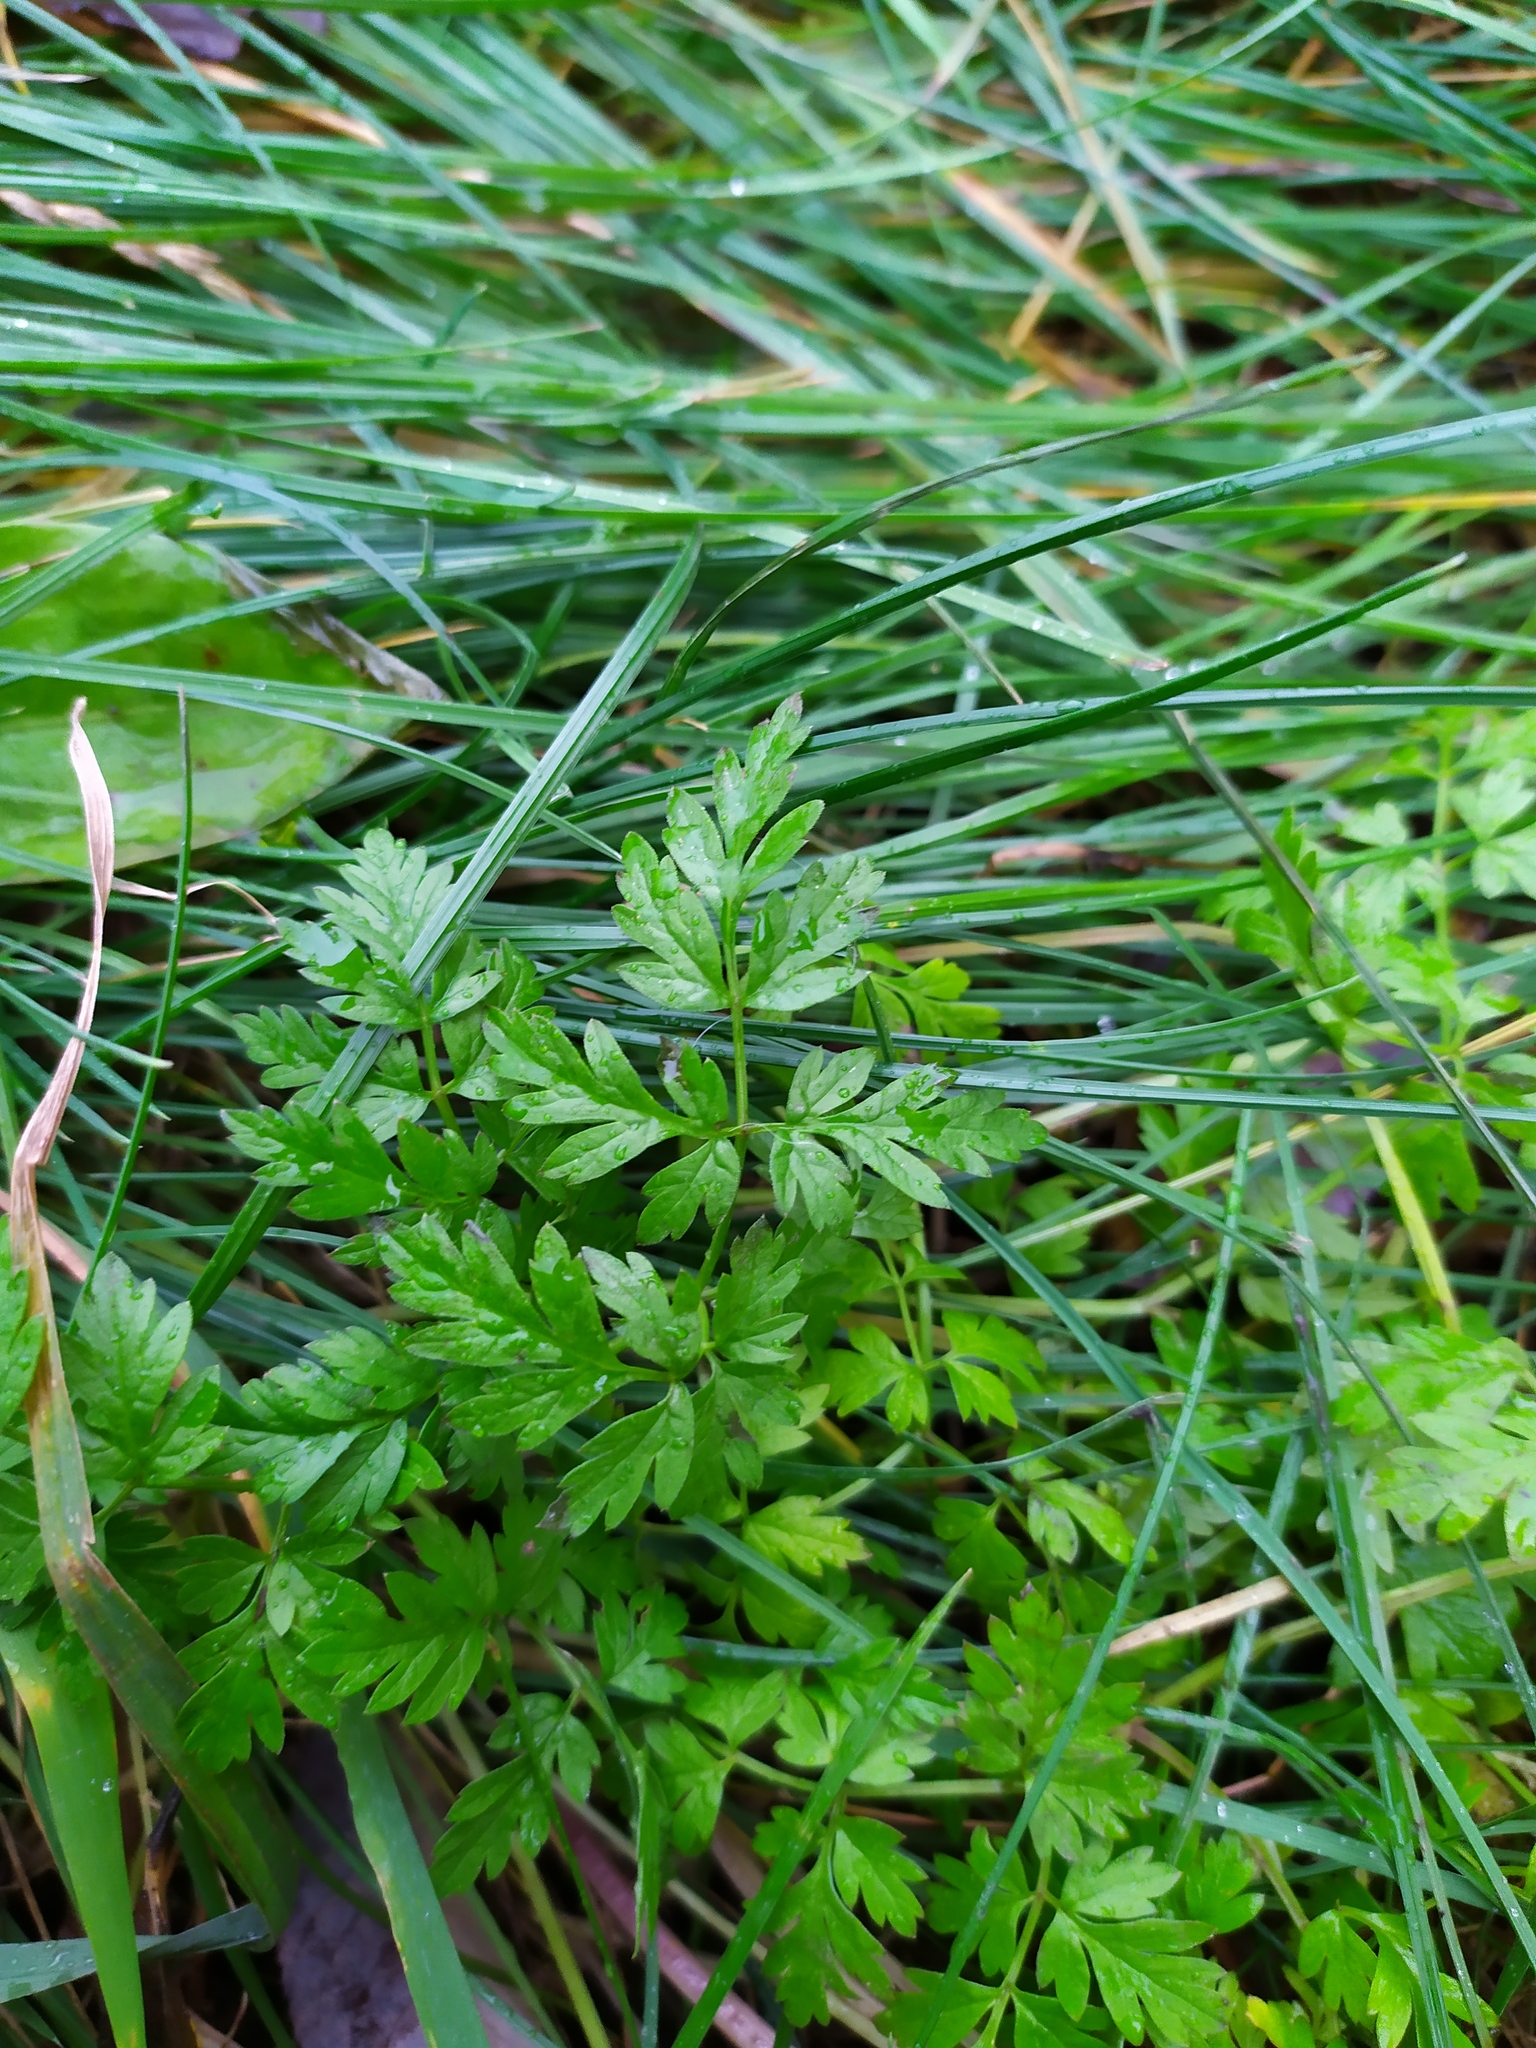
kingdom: Plantae
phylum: Tracheophyta
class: Magnoliopsida
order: Apiales
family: Apiaceae
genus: Anthriscus
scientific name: Anthriscus sylvestris
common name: Cow parsley
